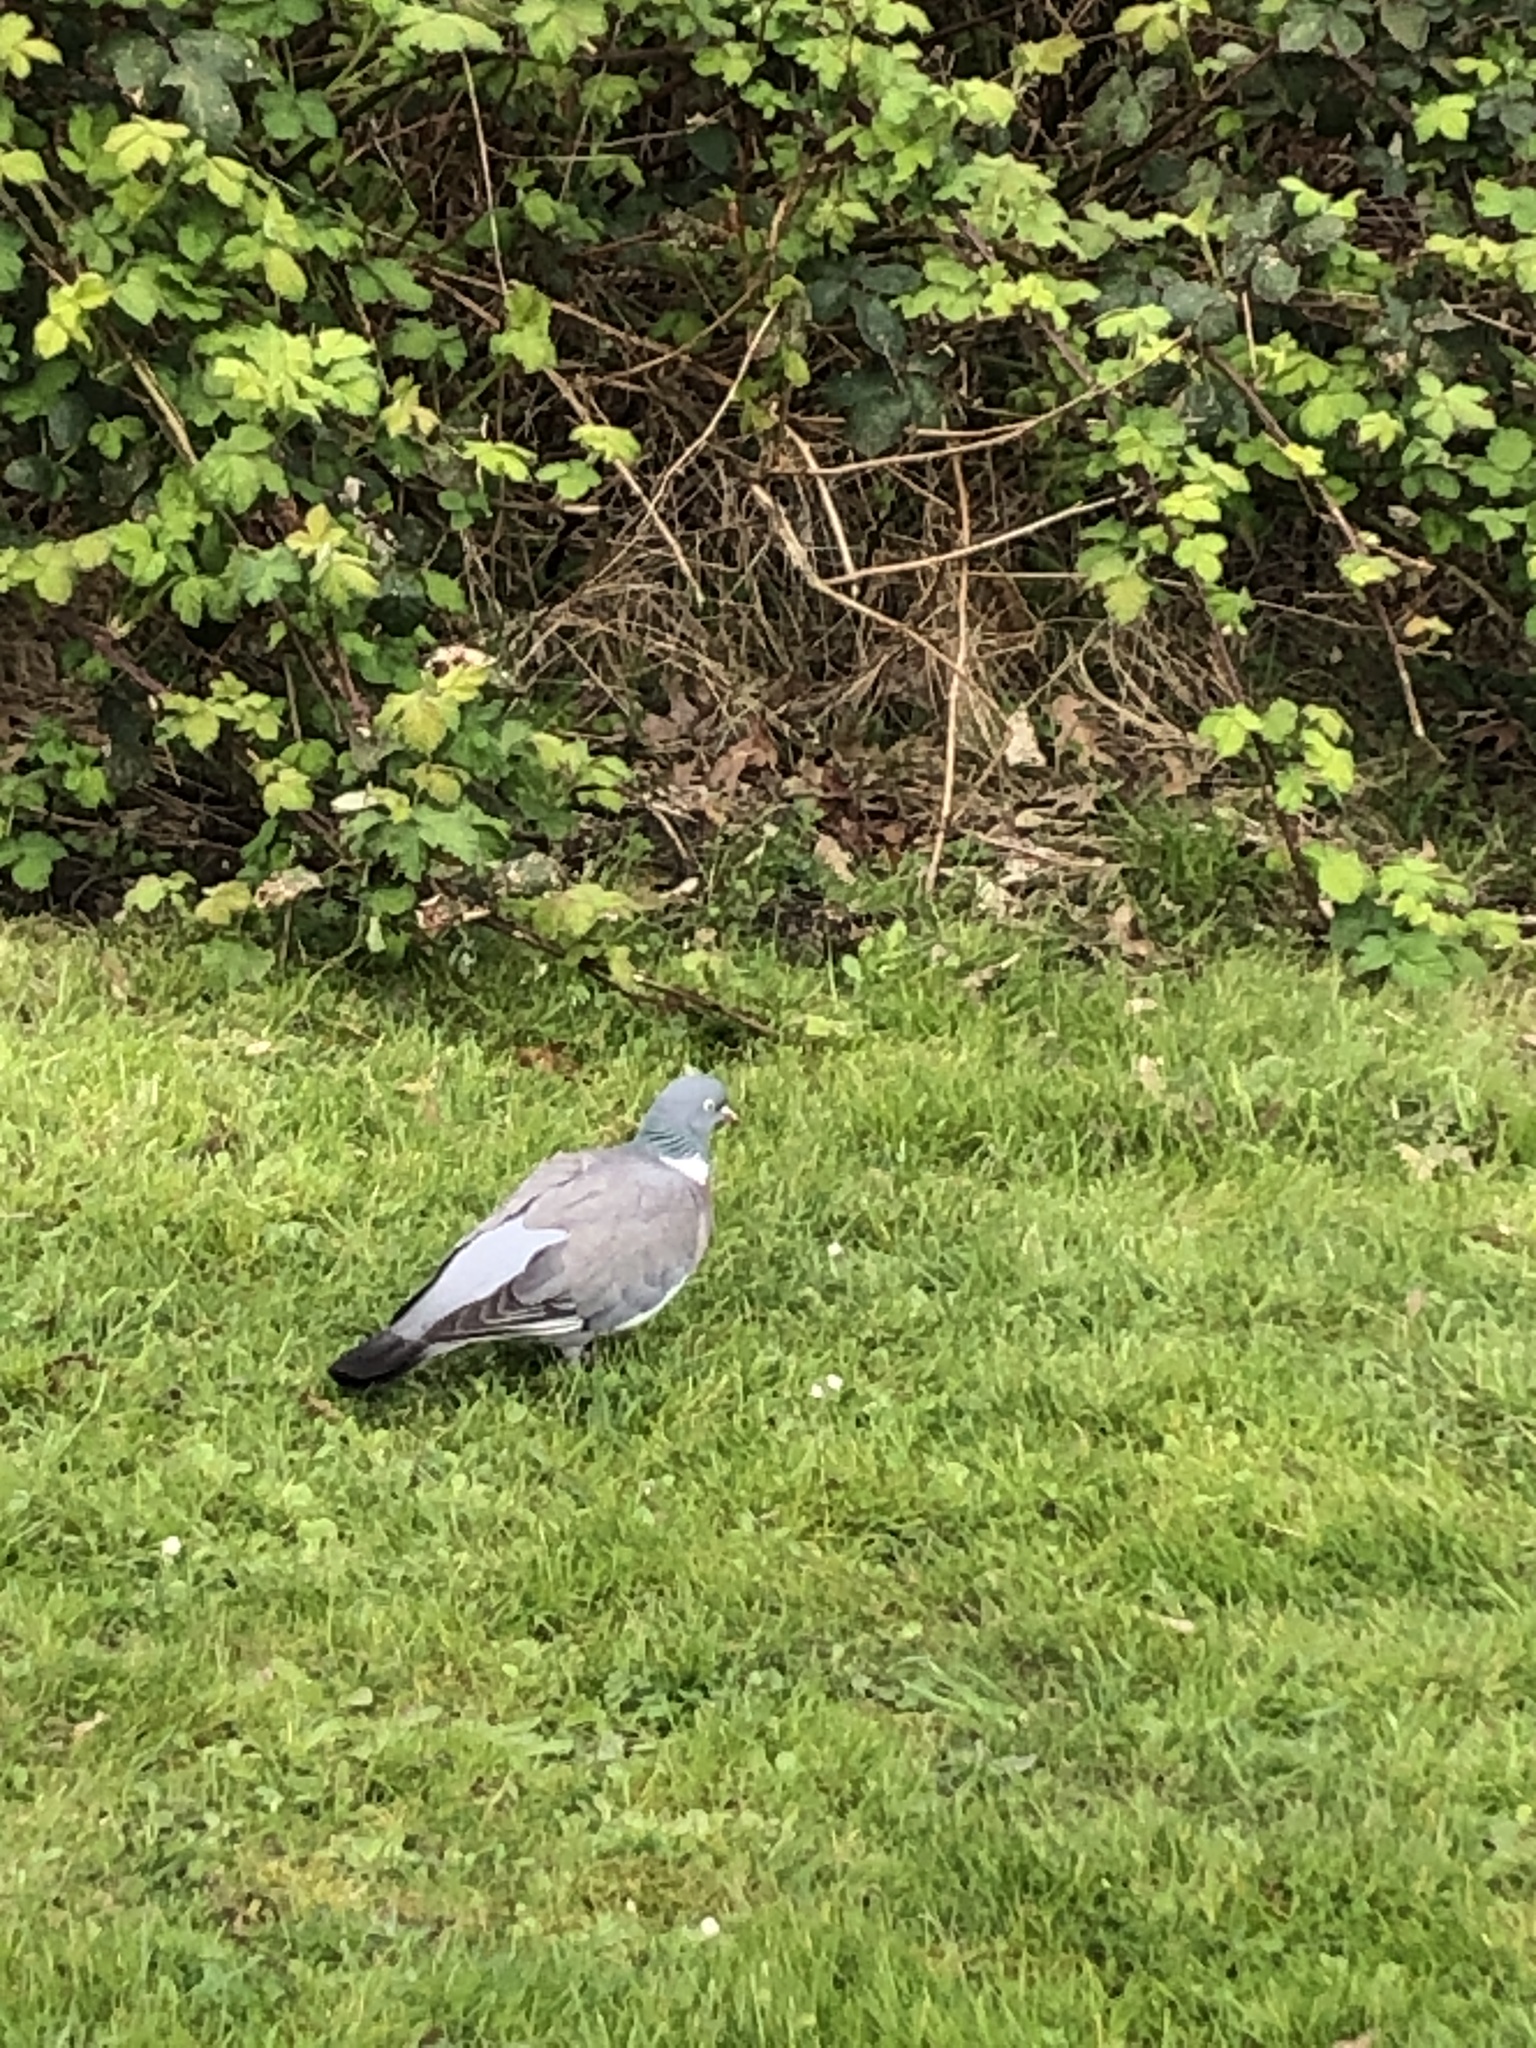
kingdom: Animalia
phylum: Chordata
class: Aves
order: Columbiformes
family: Columbidae
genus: Columba
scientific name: Columba palumbus
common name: Common wood pigeon
